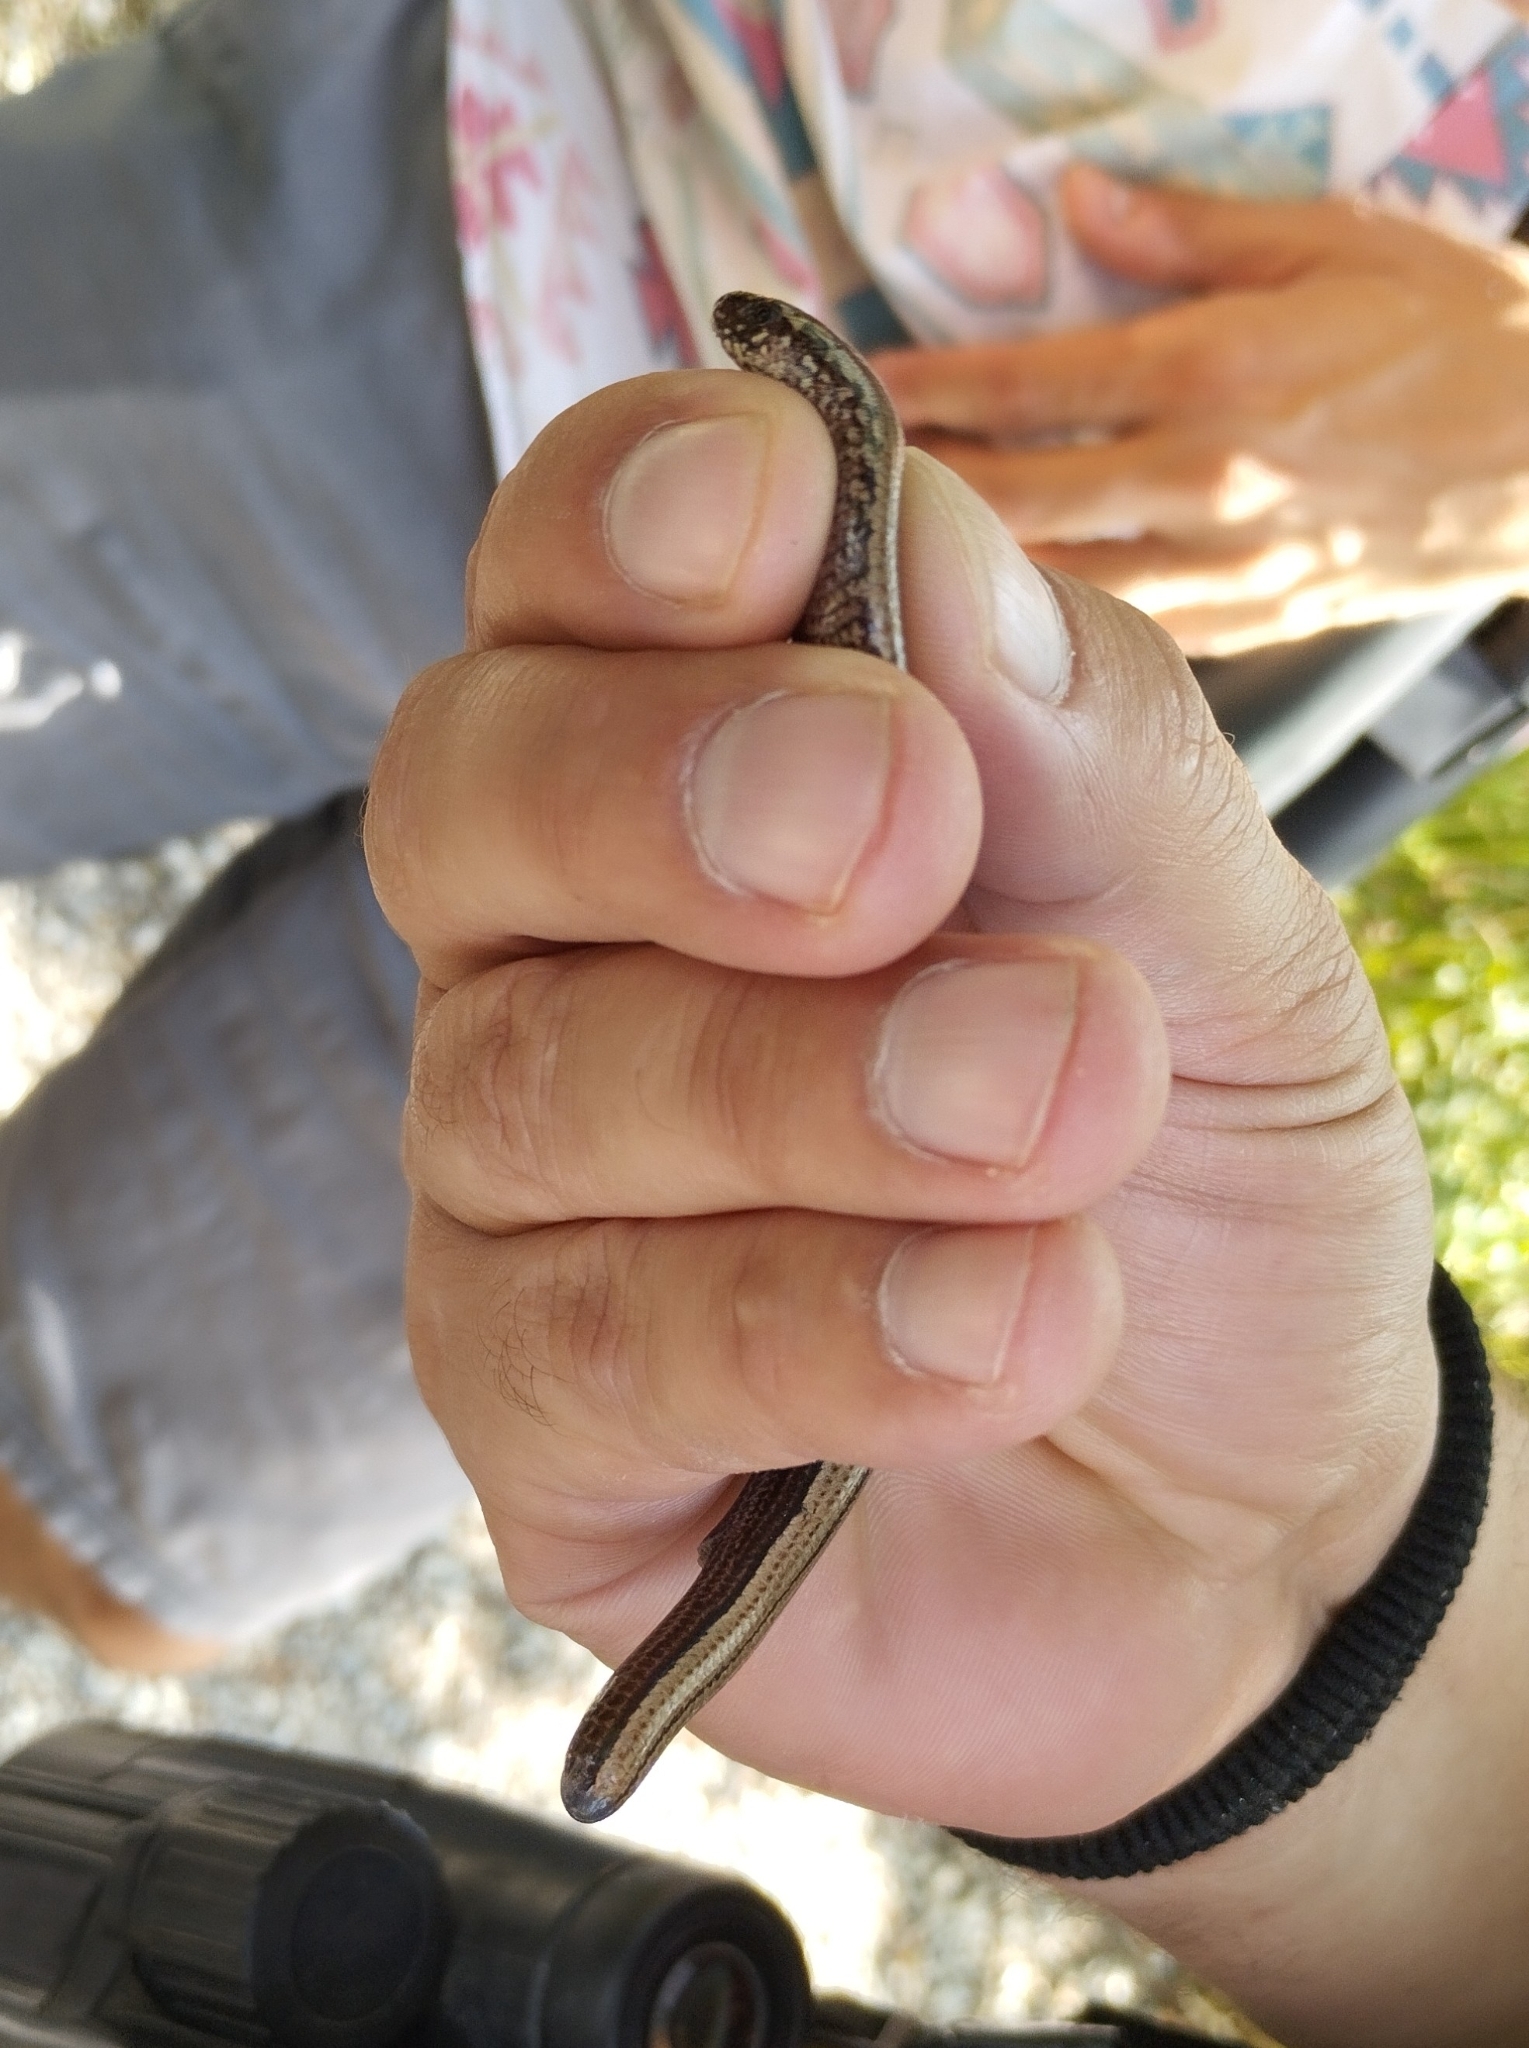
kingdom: Animalia
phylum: Chordata
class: Squamata
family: Anguidae
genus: Anguis
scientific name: Anguis fragilis
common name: Slow worm
